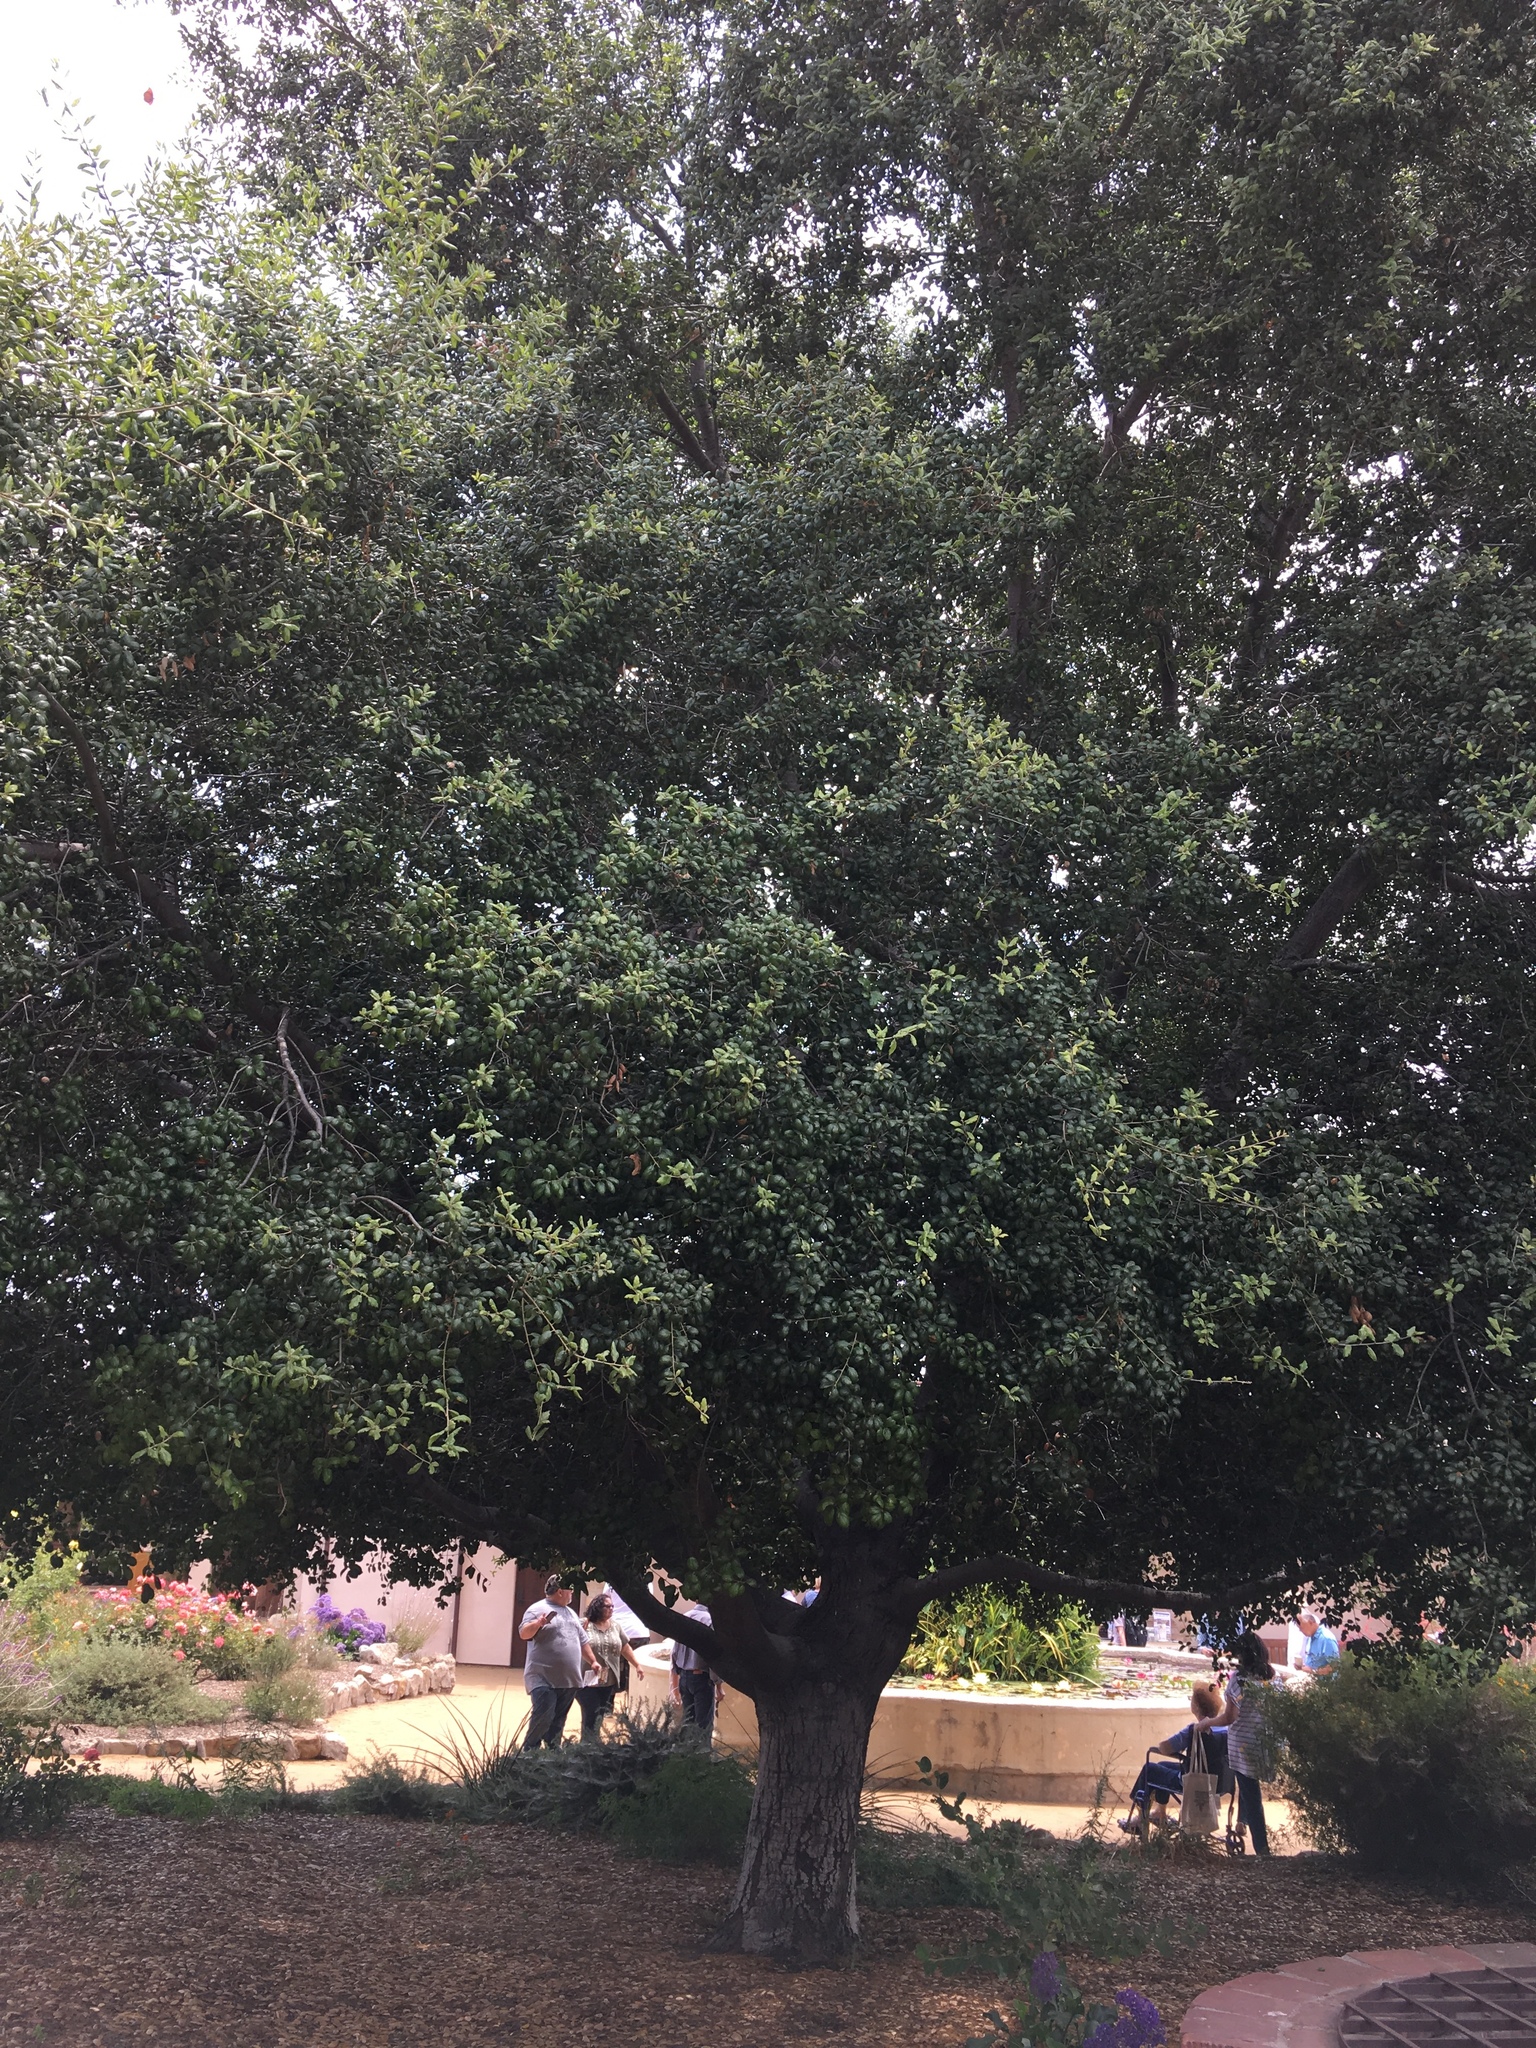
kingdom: Plantae
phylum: Tracheophyta
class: Magnoliopsida
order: Fagales
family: Fagaceae
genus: Quercus
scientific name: Quercus agrifolia
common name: California live oak
